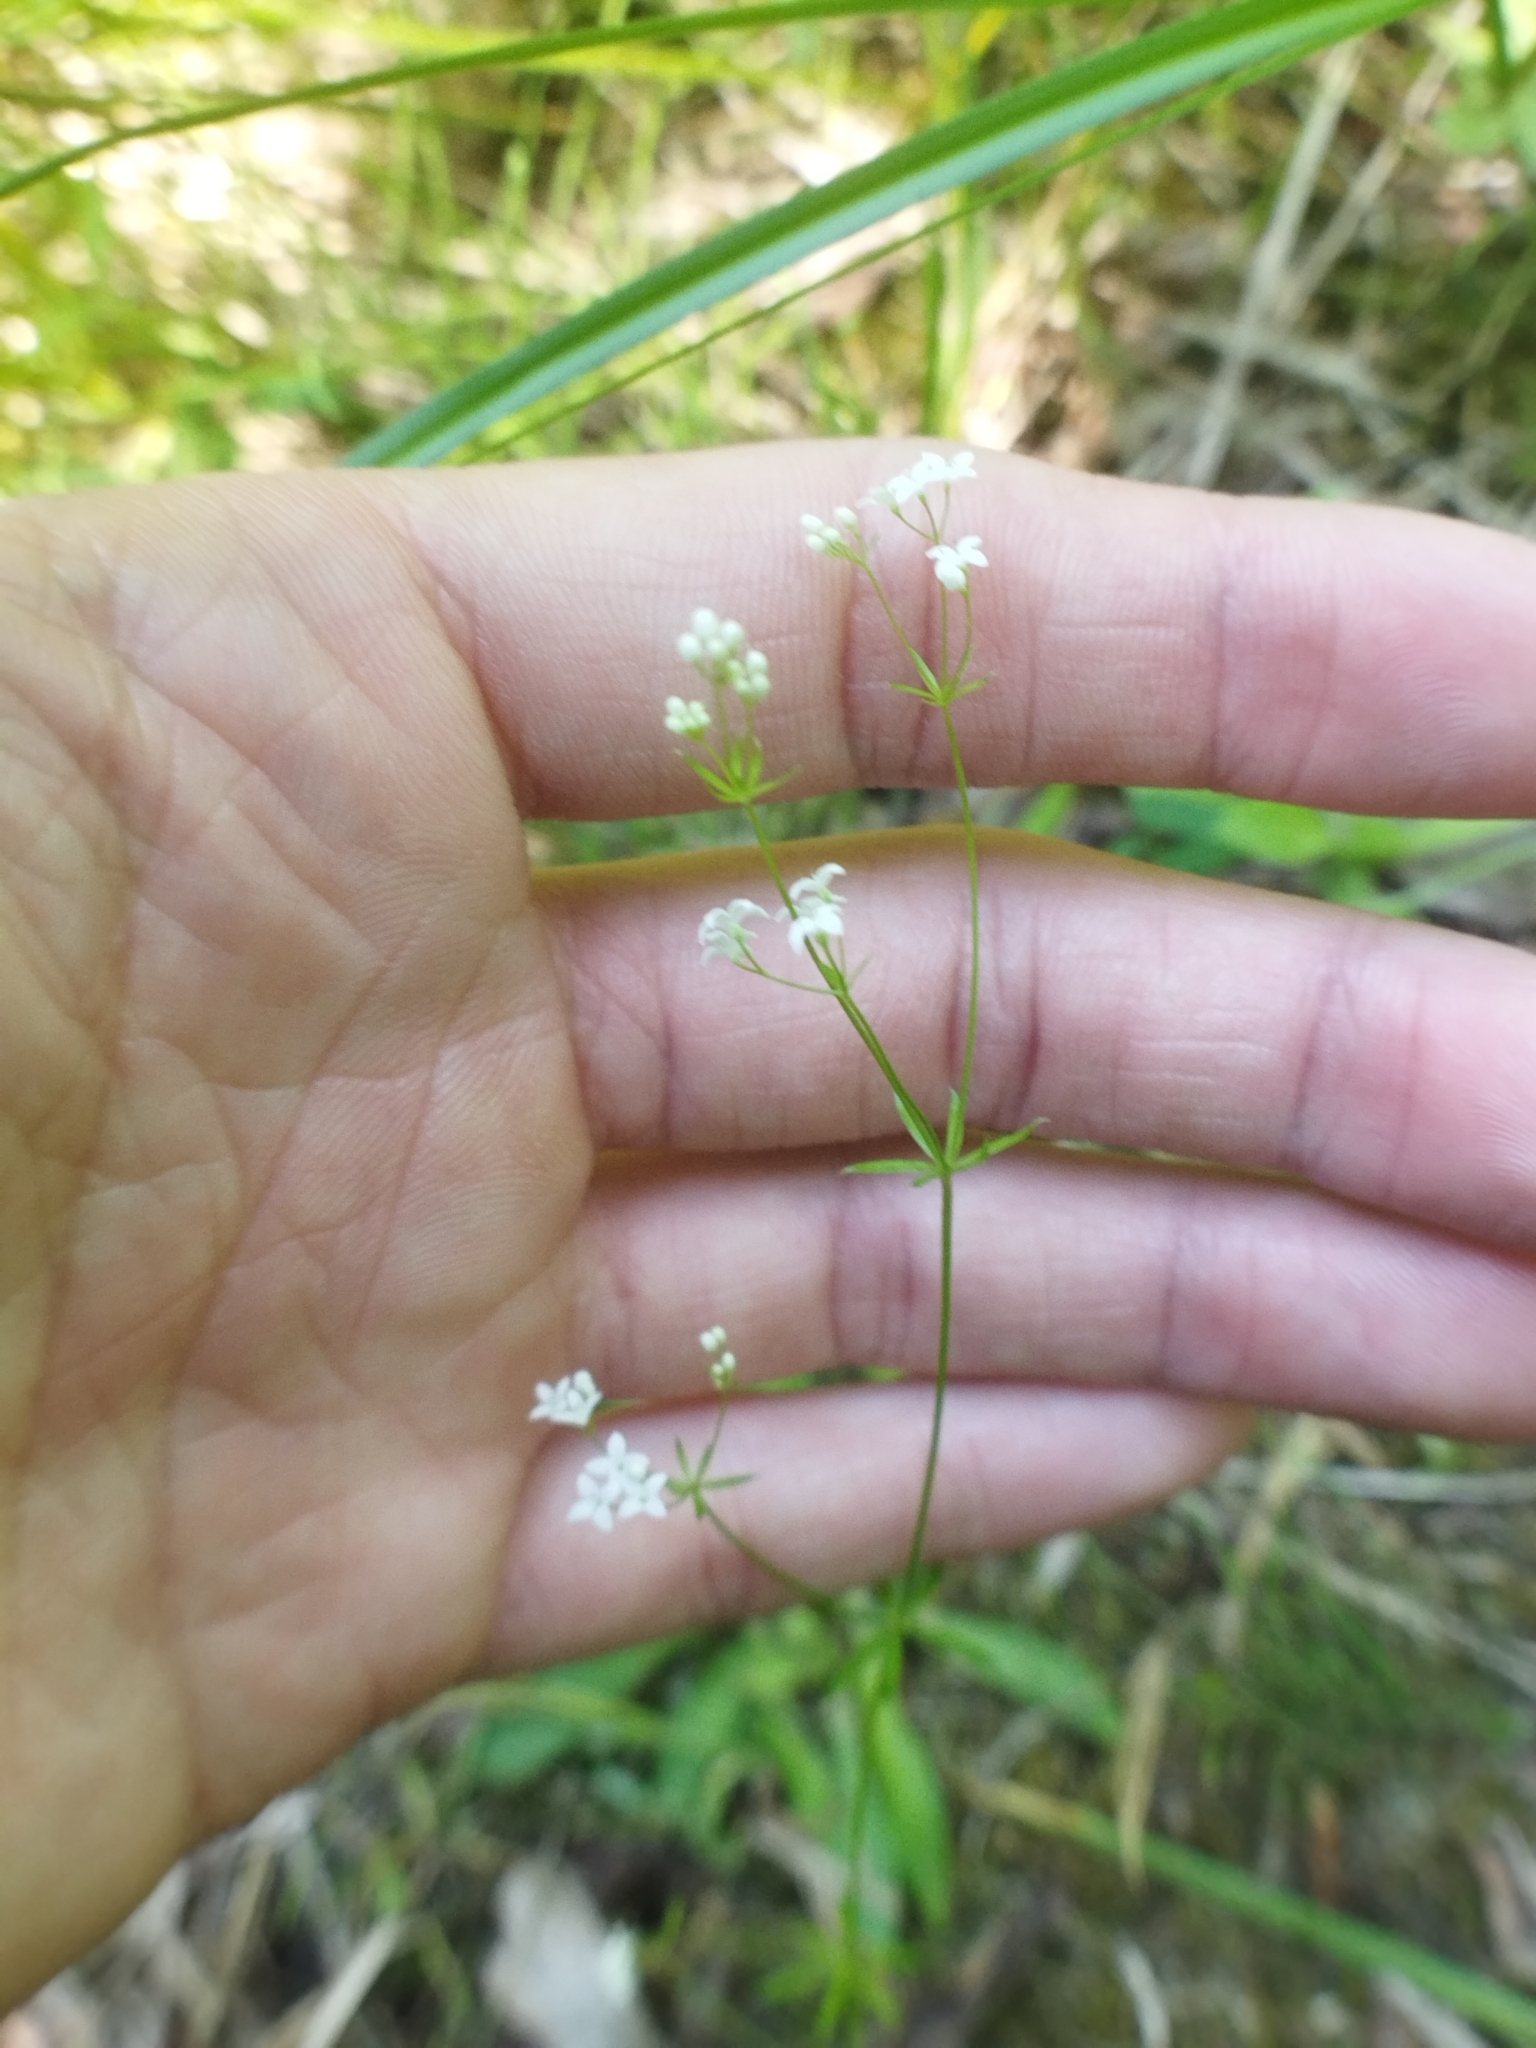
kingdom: Plantae
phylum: Tracheophyta
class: Magnoliopsida
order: Gentianales
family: Rubiaceae
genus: Galium
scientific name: Galium uliginosum
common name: Fen bedstraw
